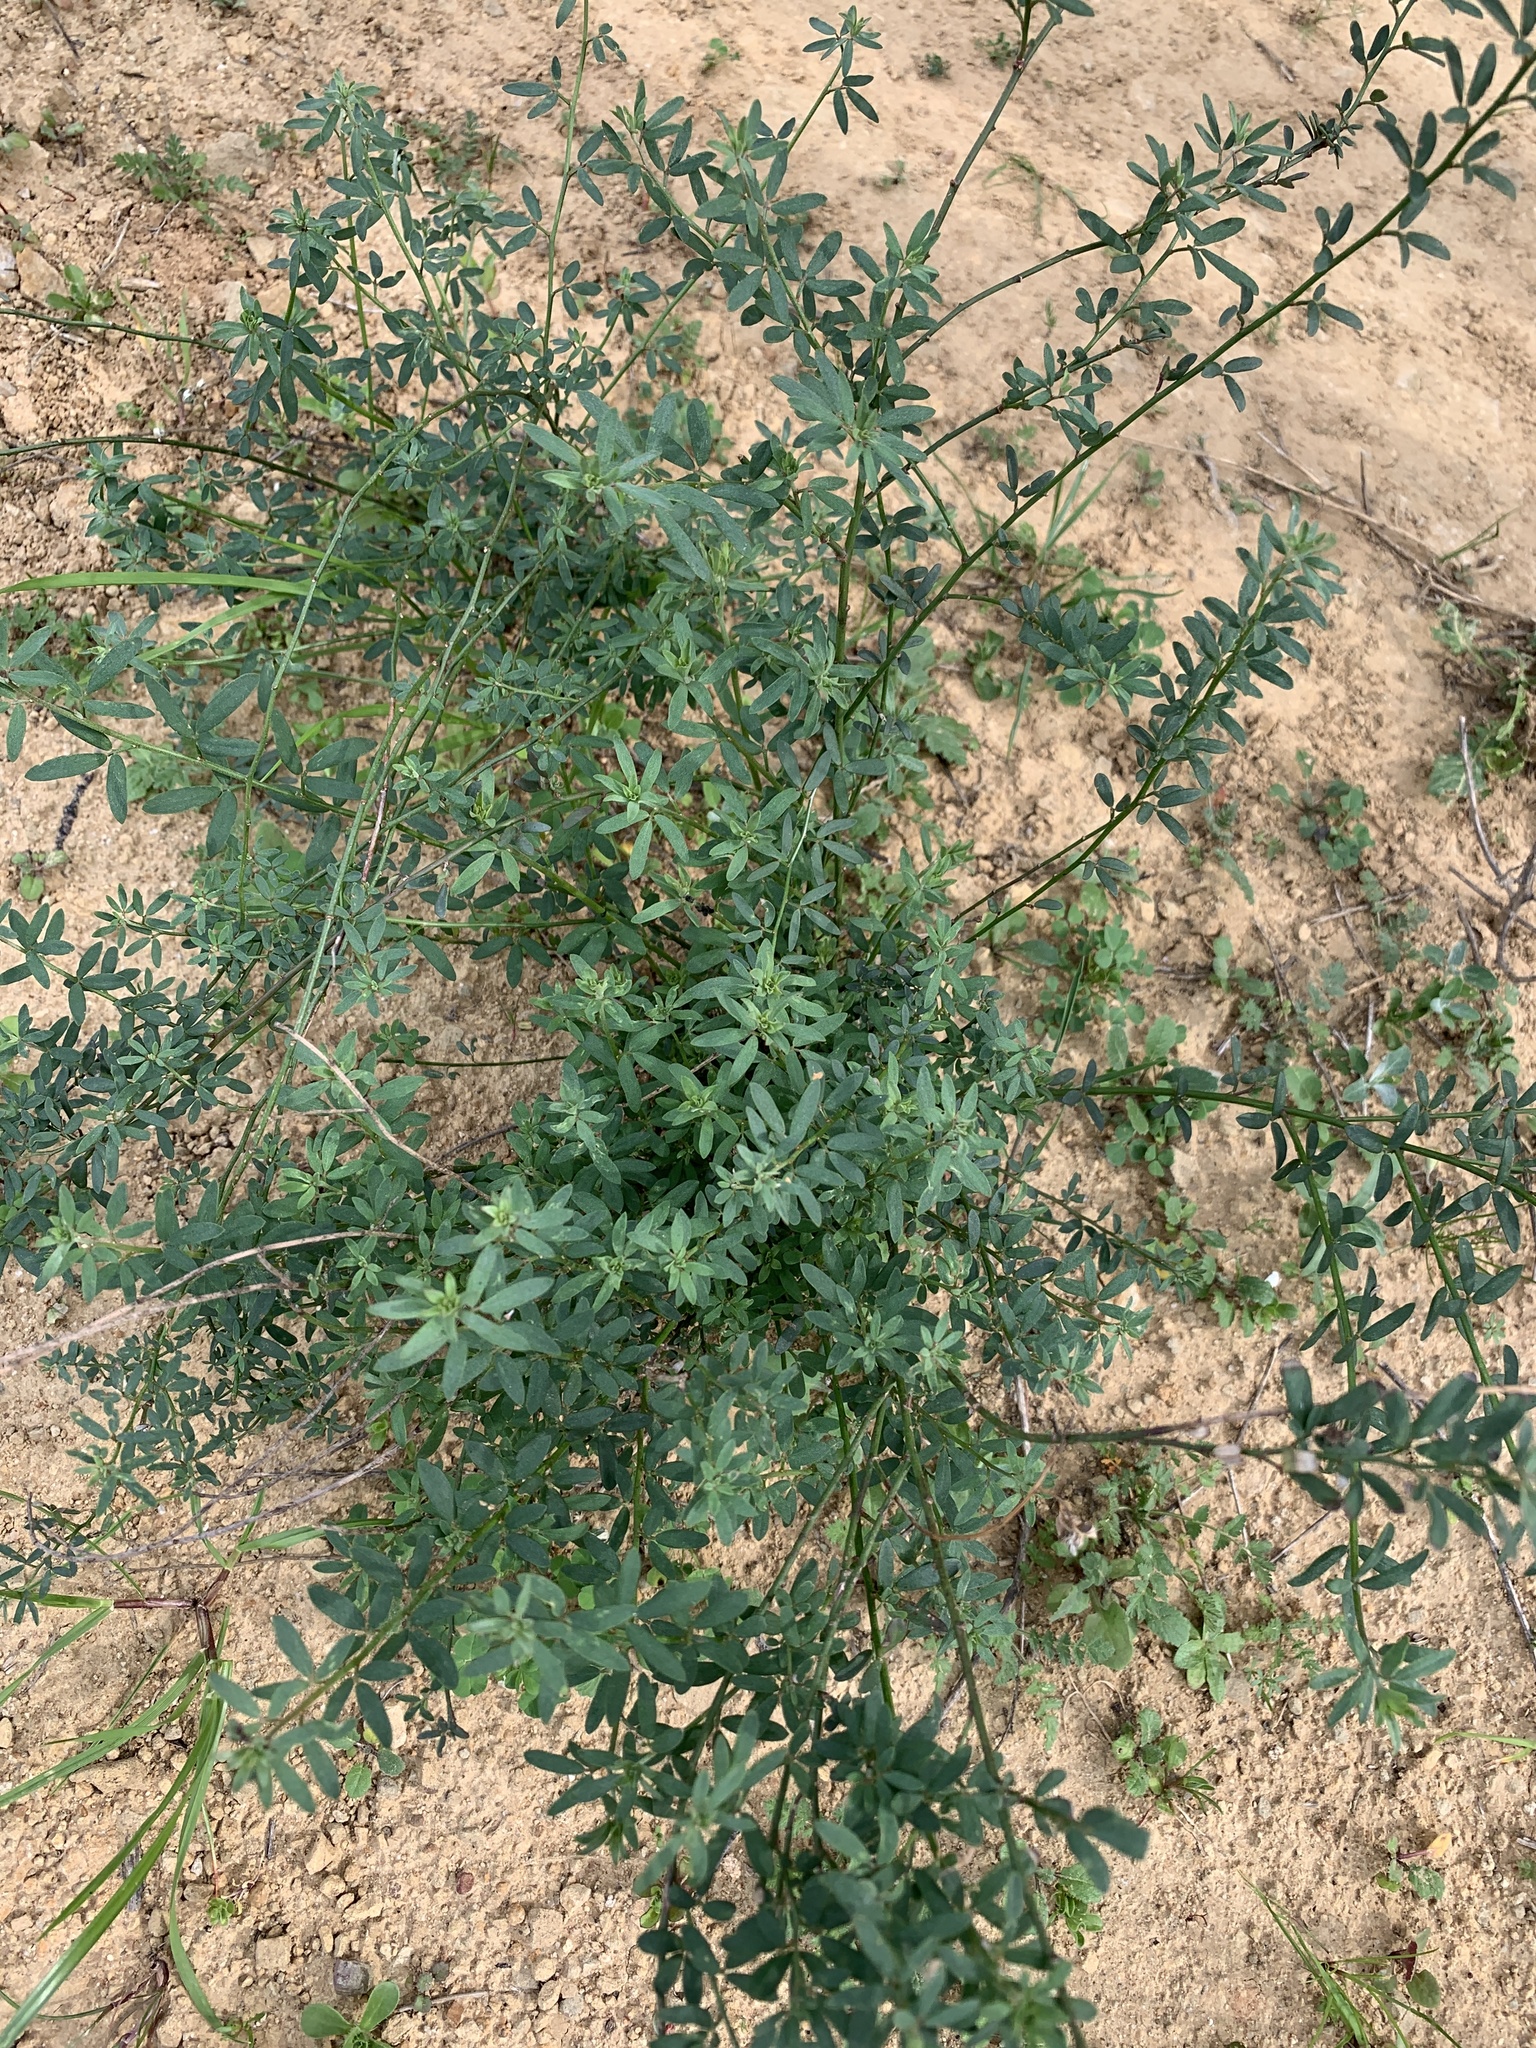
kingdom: Plantae
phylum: Tracheophyta
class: Magnoliopsida
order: Fabales
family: Fabaceae
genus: Acmispon
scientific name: Acmispon glaber
